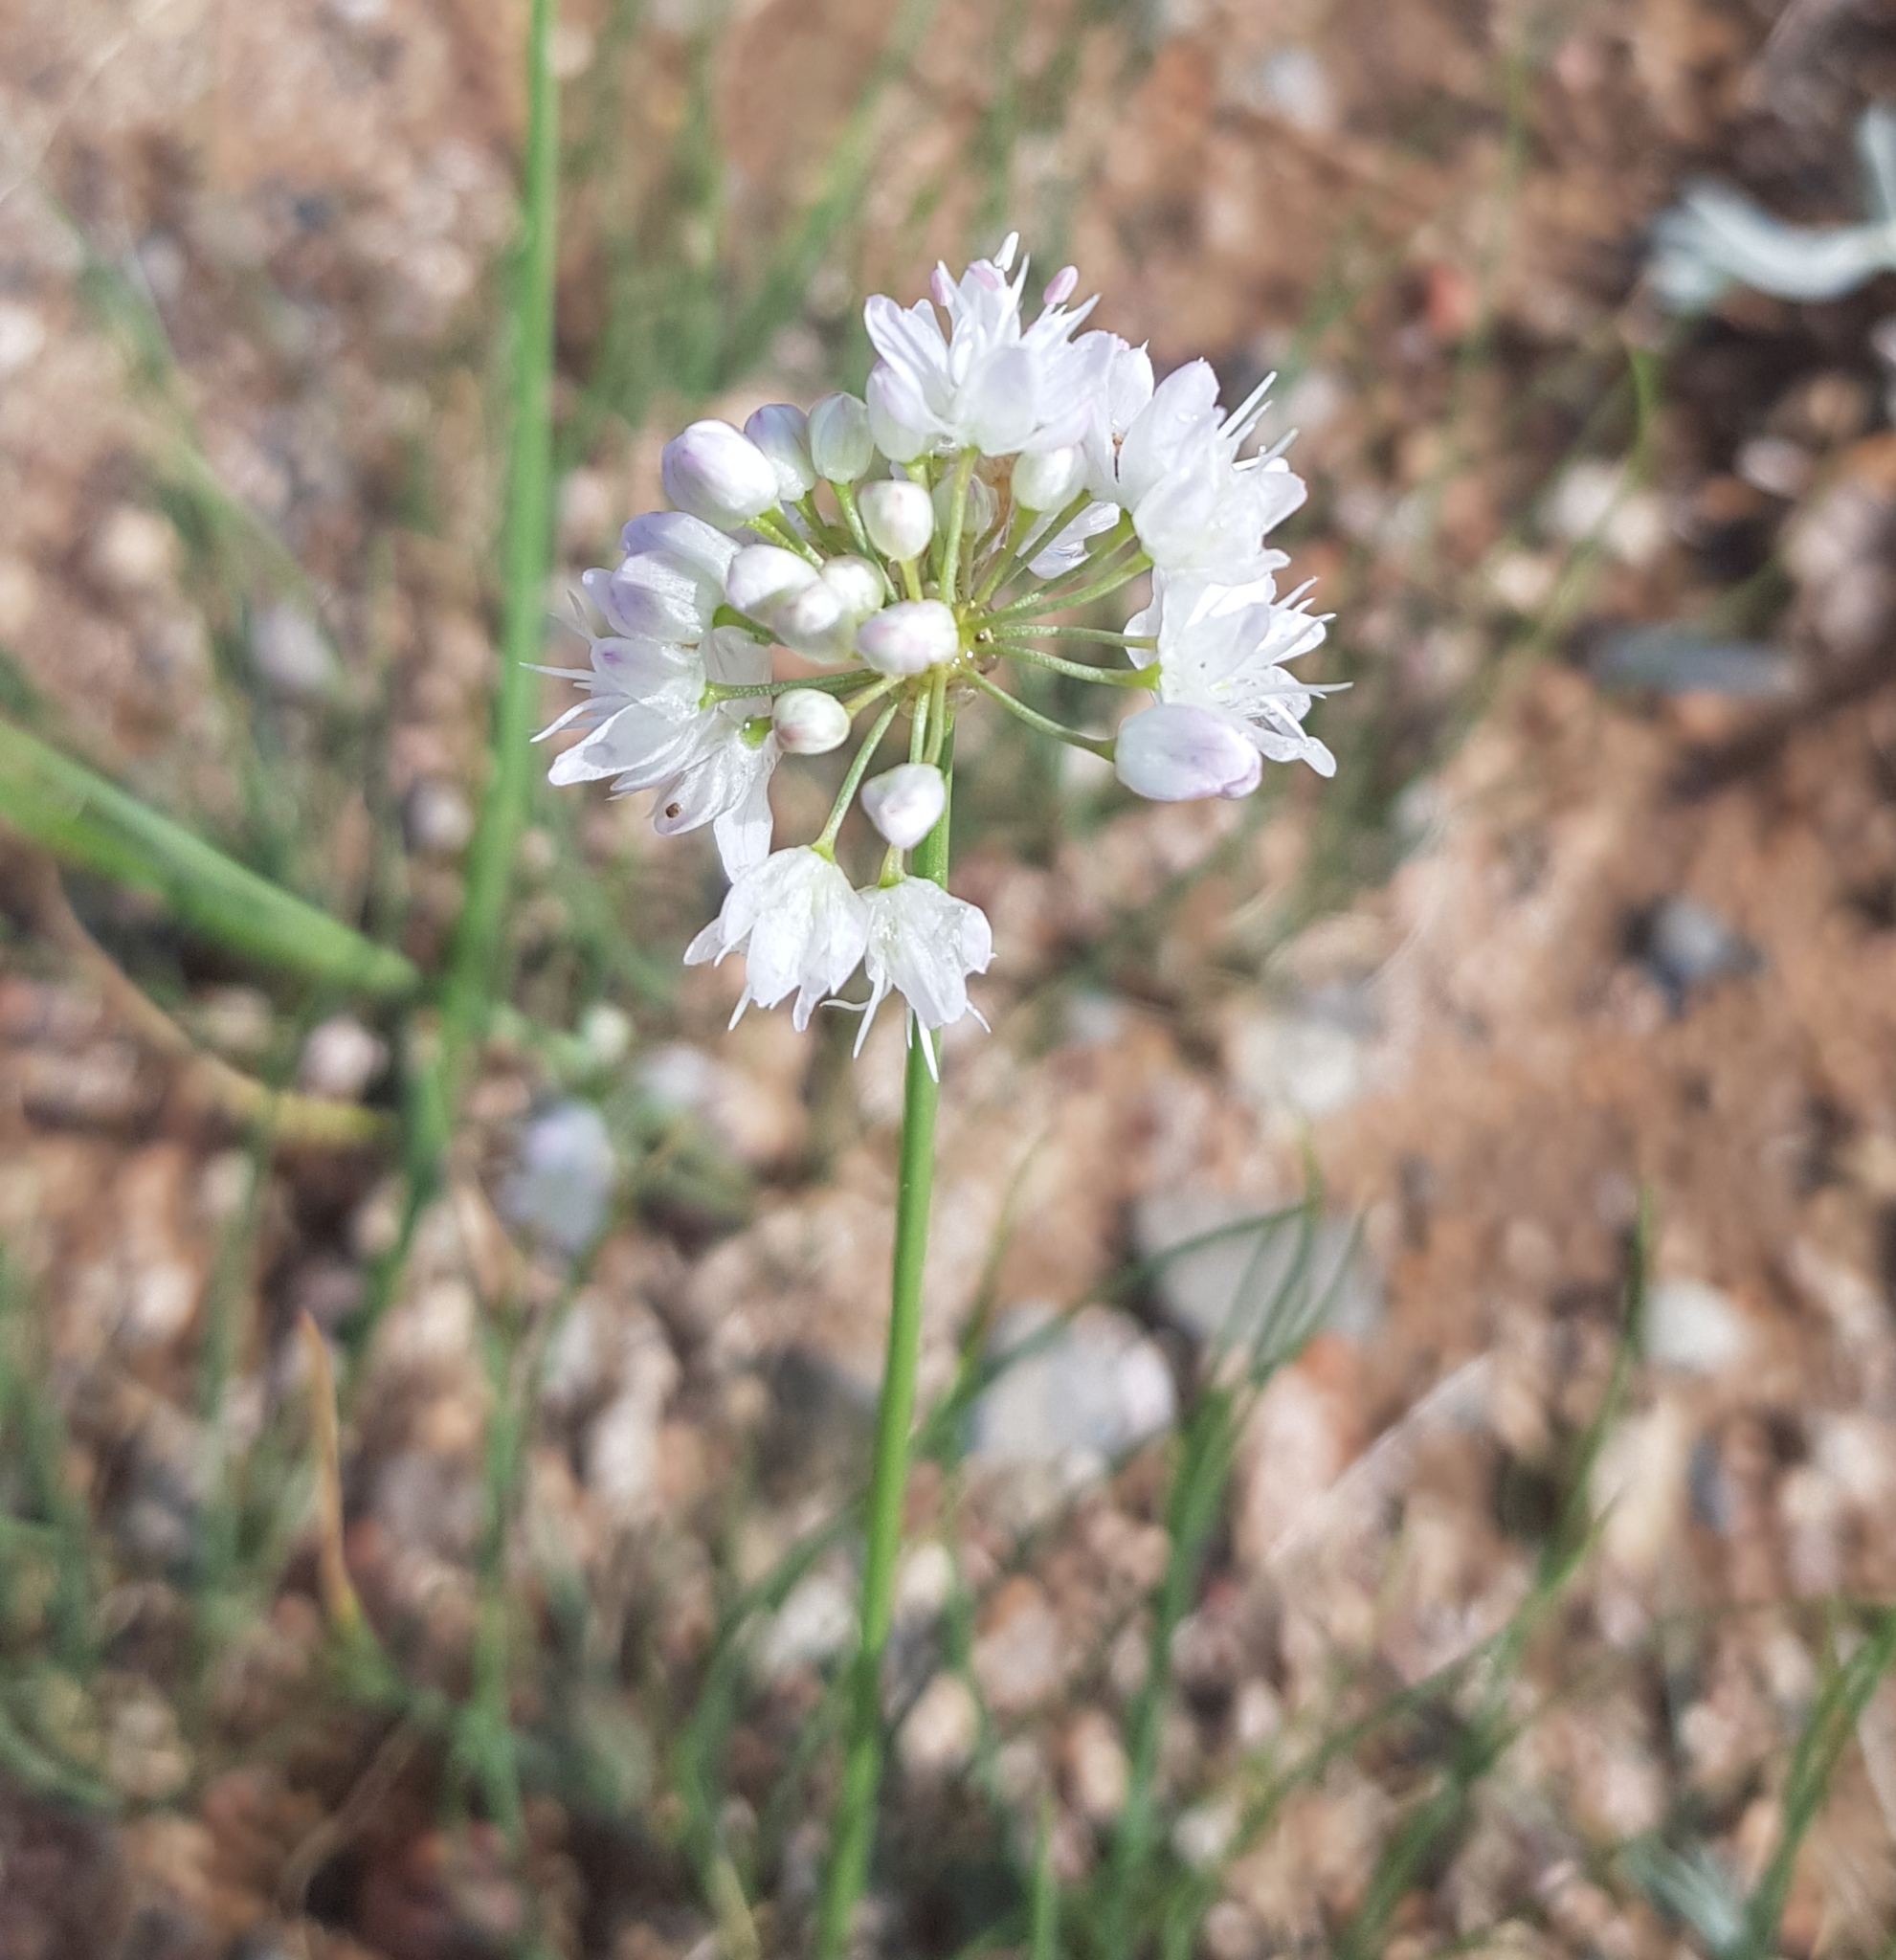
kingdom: Plantae
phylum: Tracheophyta
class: Liliopsida
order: Asparagales
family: Amaryllidaceae
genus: Allium
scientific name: Allium polyrhizum
